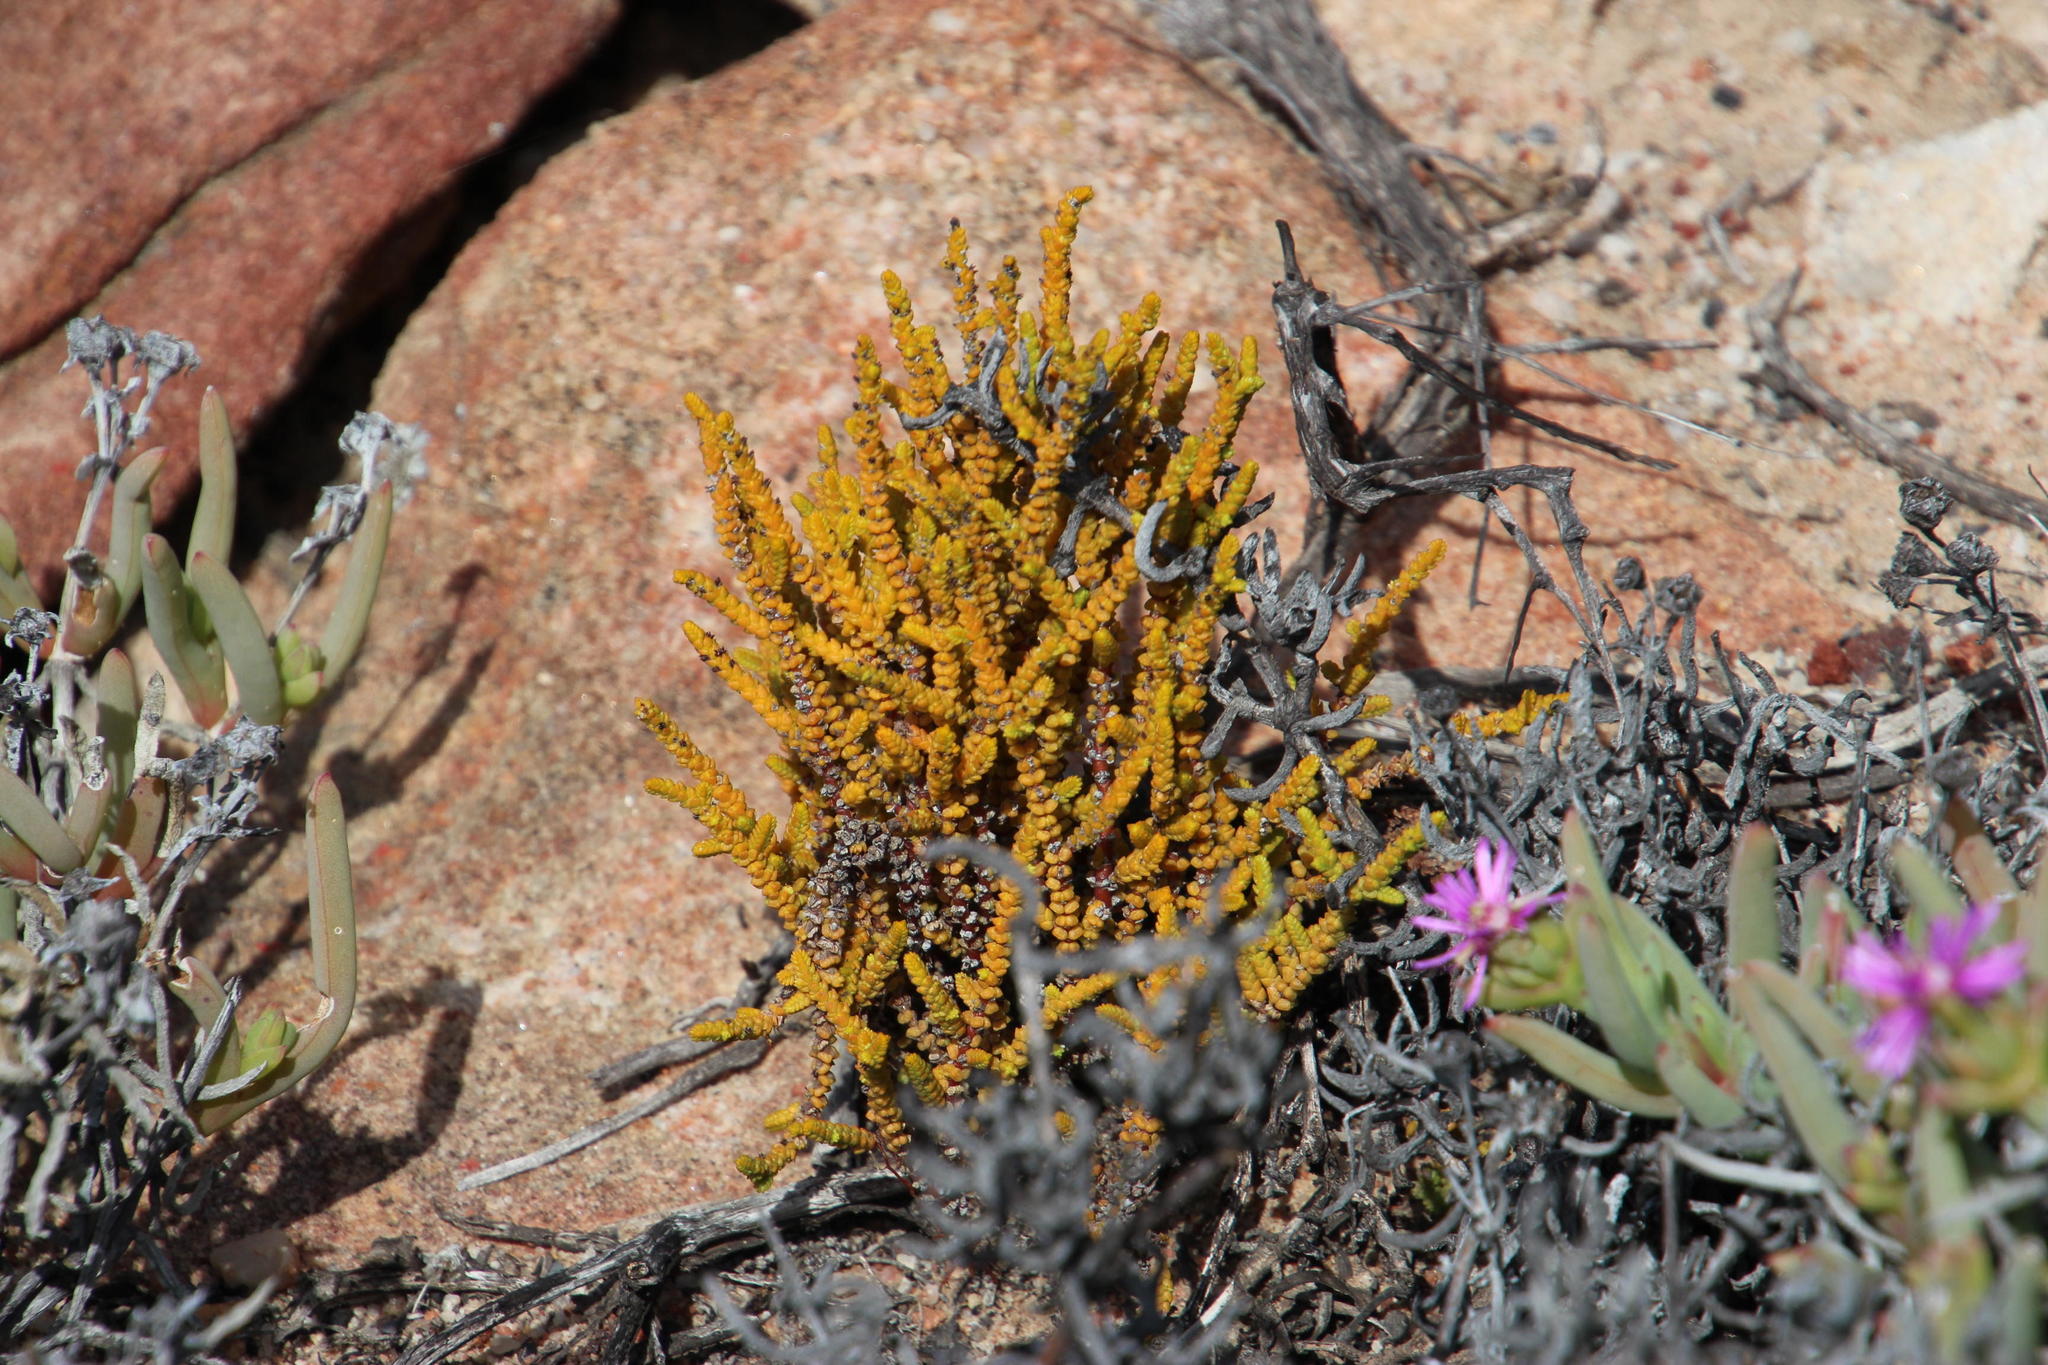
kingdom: Plantae
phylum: Tracheophyta
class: Magnoliopsida
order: Saxifragales
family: Crassulaceae
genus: Crassula
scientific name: Crassula muscosa
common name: Toy-cypress
